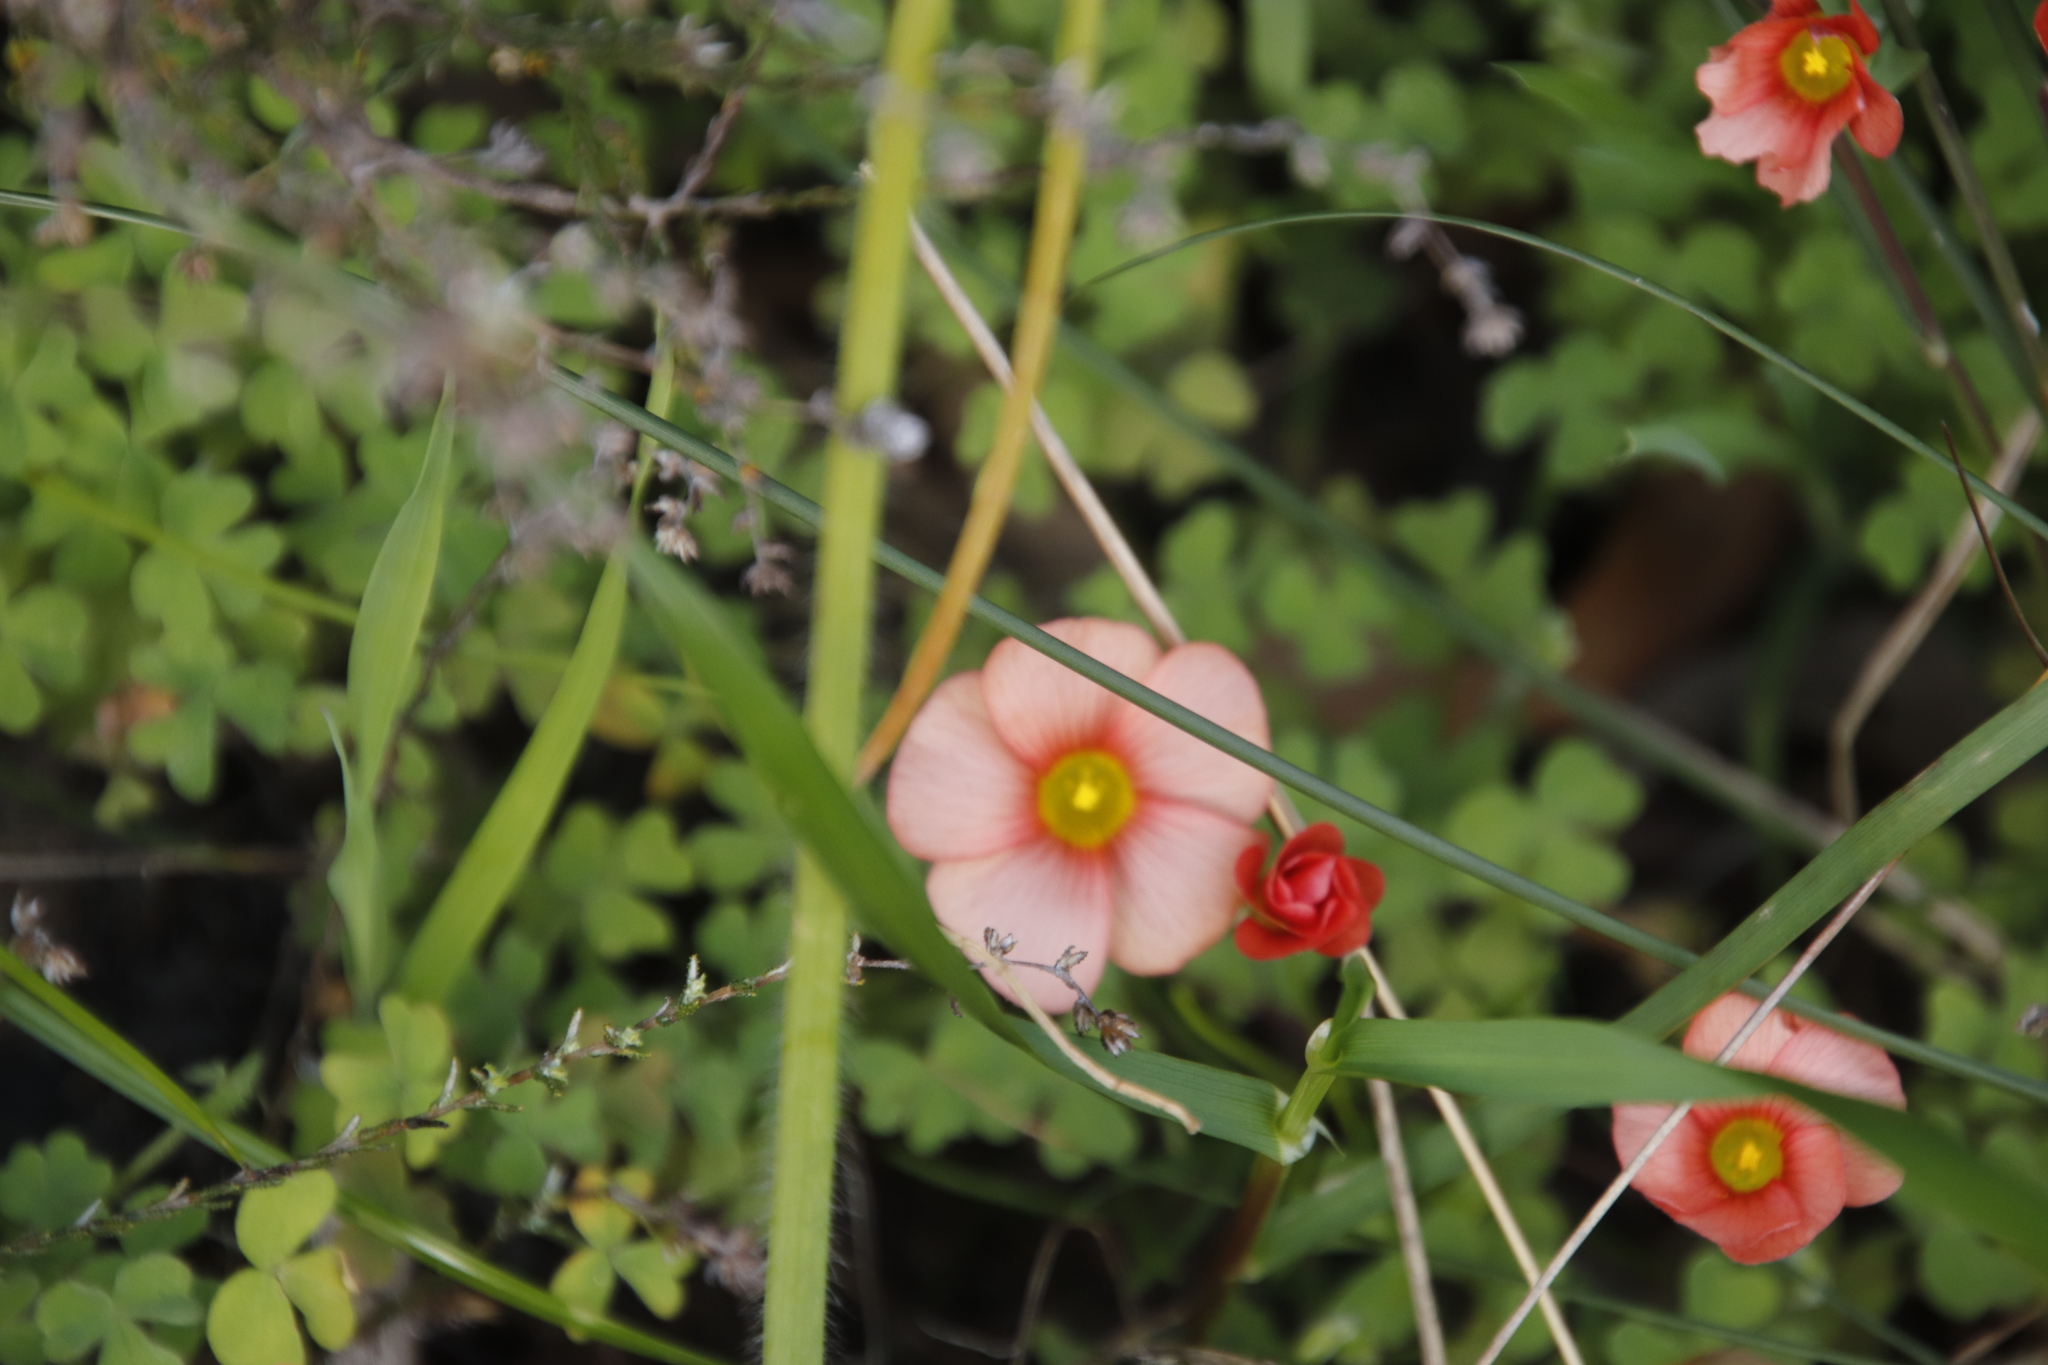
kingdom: Plantae
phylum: Tracheophyta
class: Magnoliopsida
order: Oxalidales
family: Oxalidaceae
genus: Oxalis
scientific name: Oxalis obtusa
